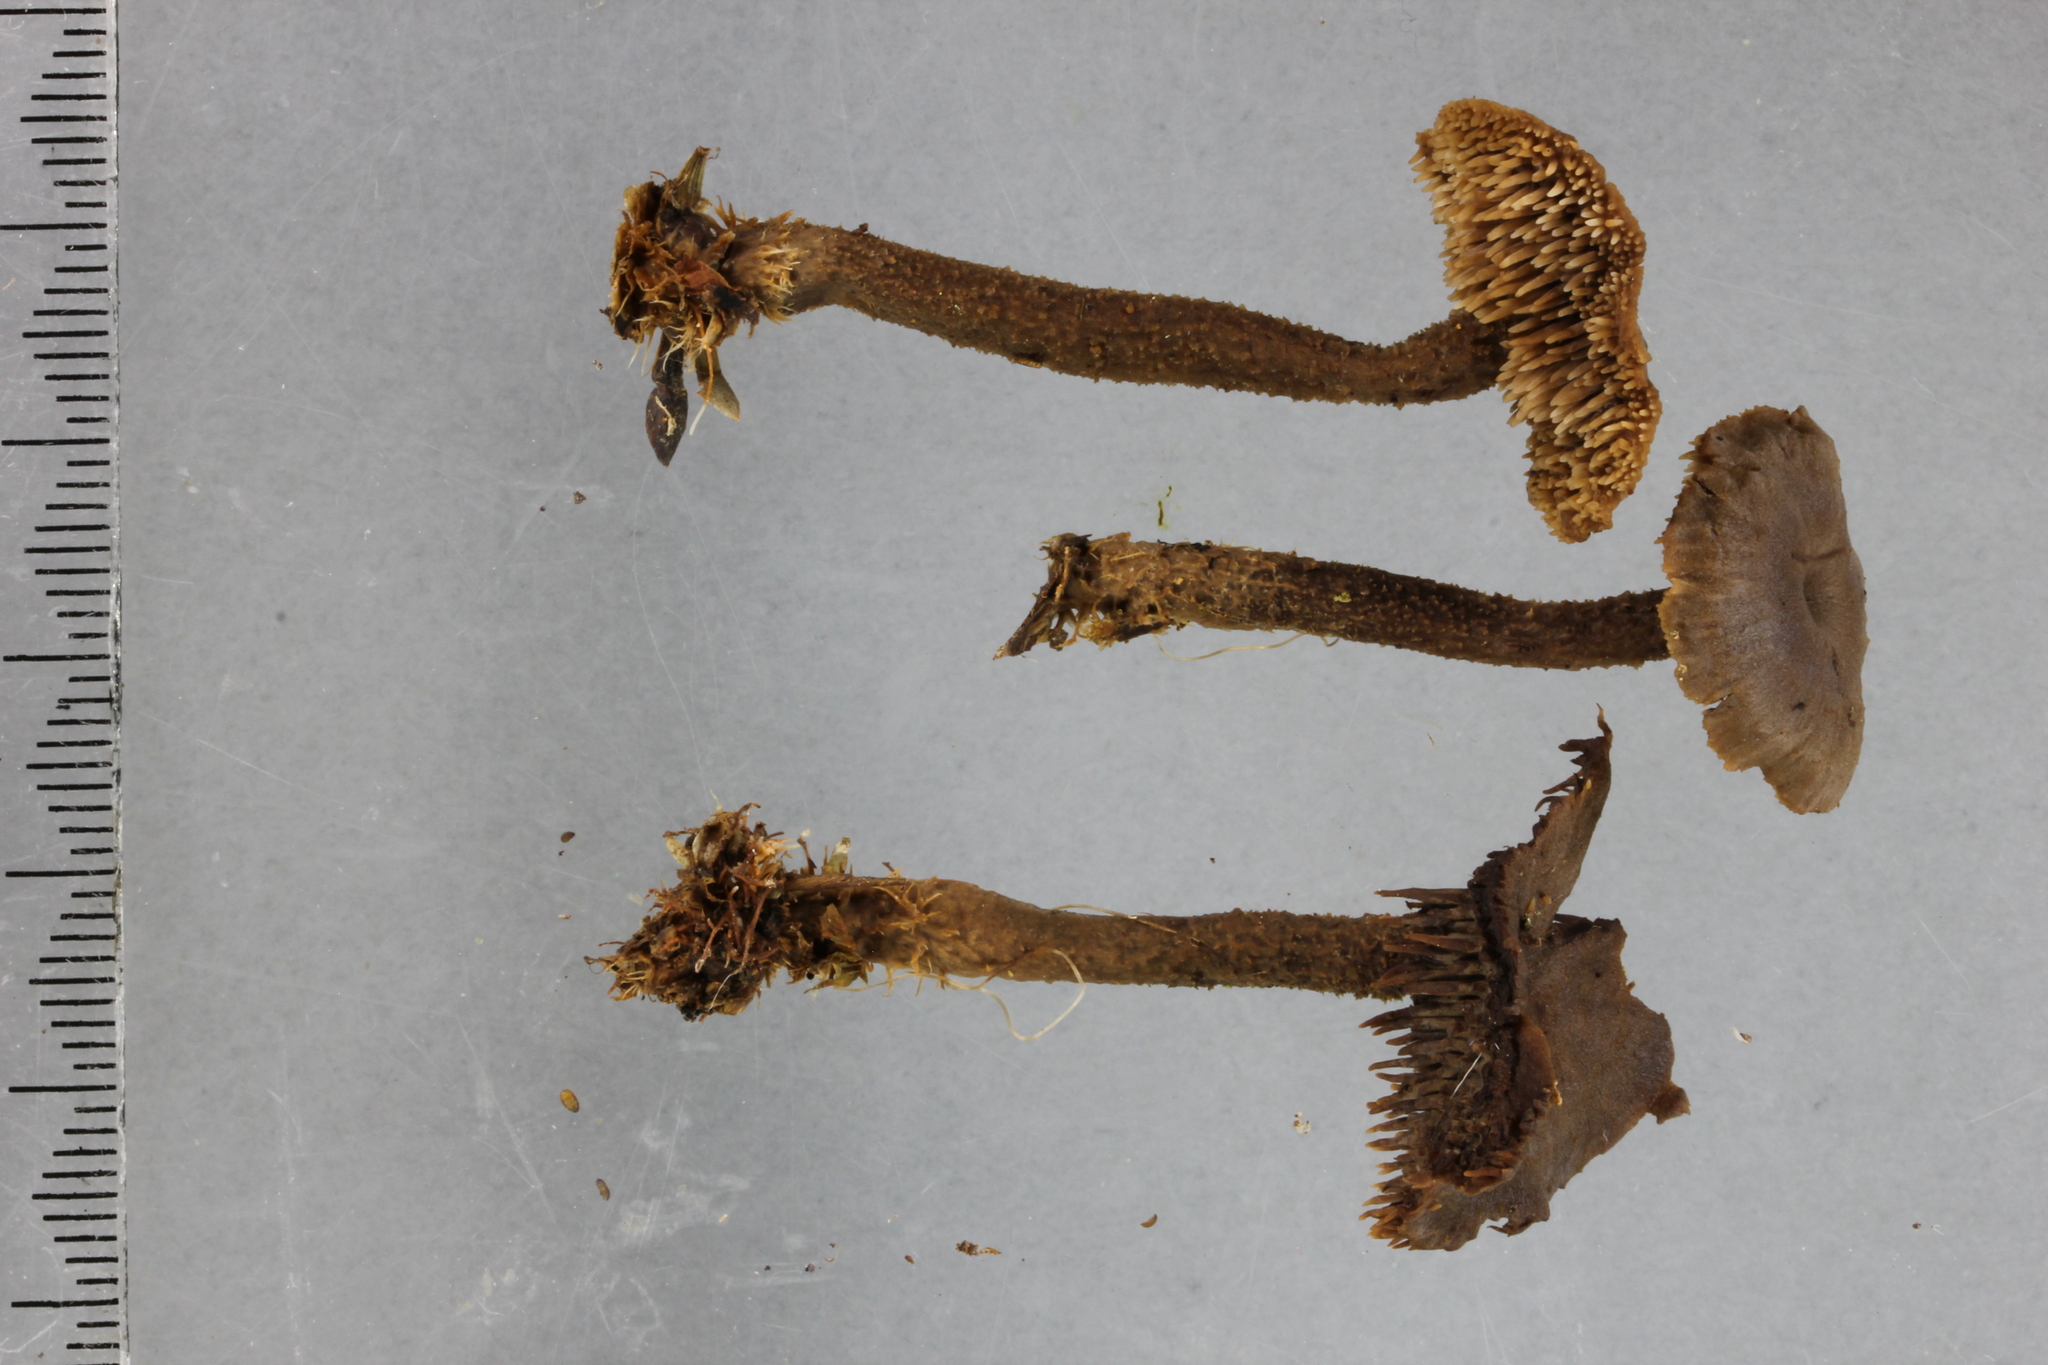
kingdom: Fungi
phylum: Basidiomycota
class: Agaricomycetes
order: Russulales
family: Auriscalpiaceae
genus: Auriscalpium
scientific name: Auriscalpium umbella
